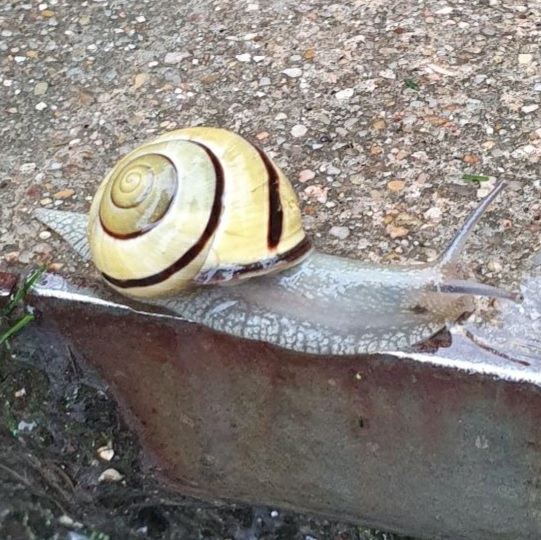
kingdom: Animalia
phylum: Mollusca
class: Gastropoda
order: Stylommatophora
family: Helicidae
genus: Cepaea
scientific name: Cepaea nemoralis
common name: Grovesnail
